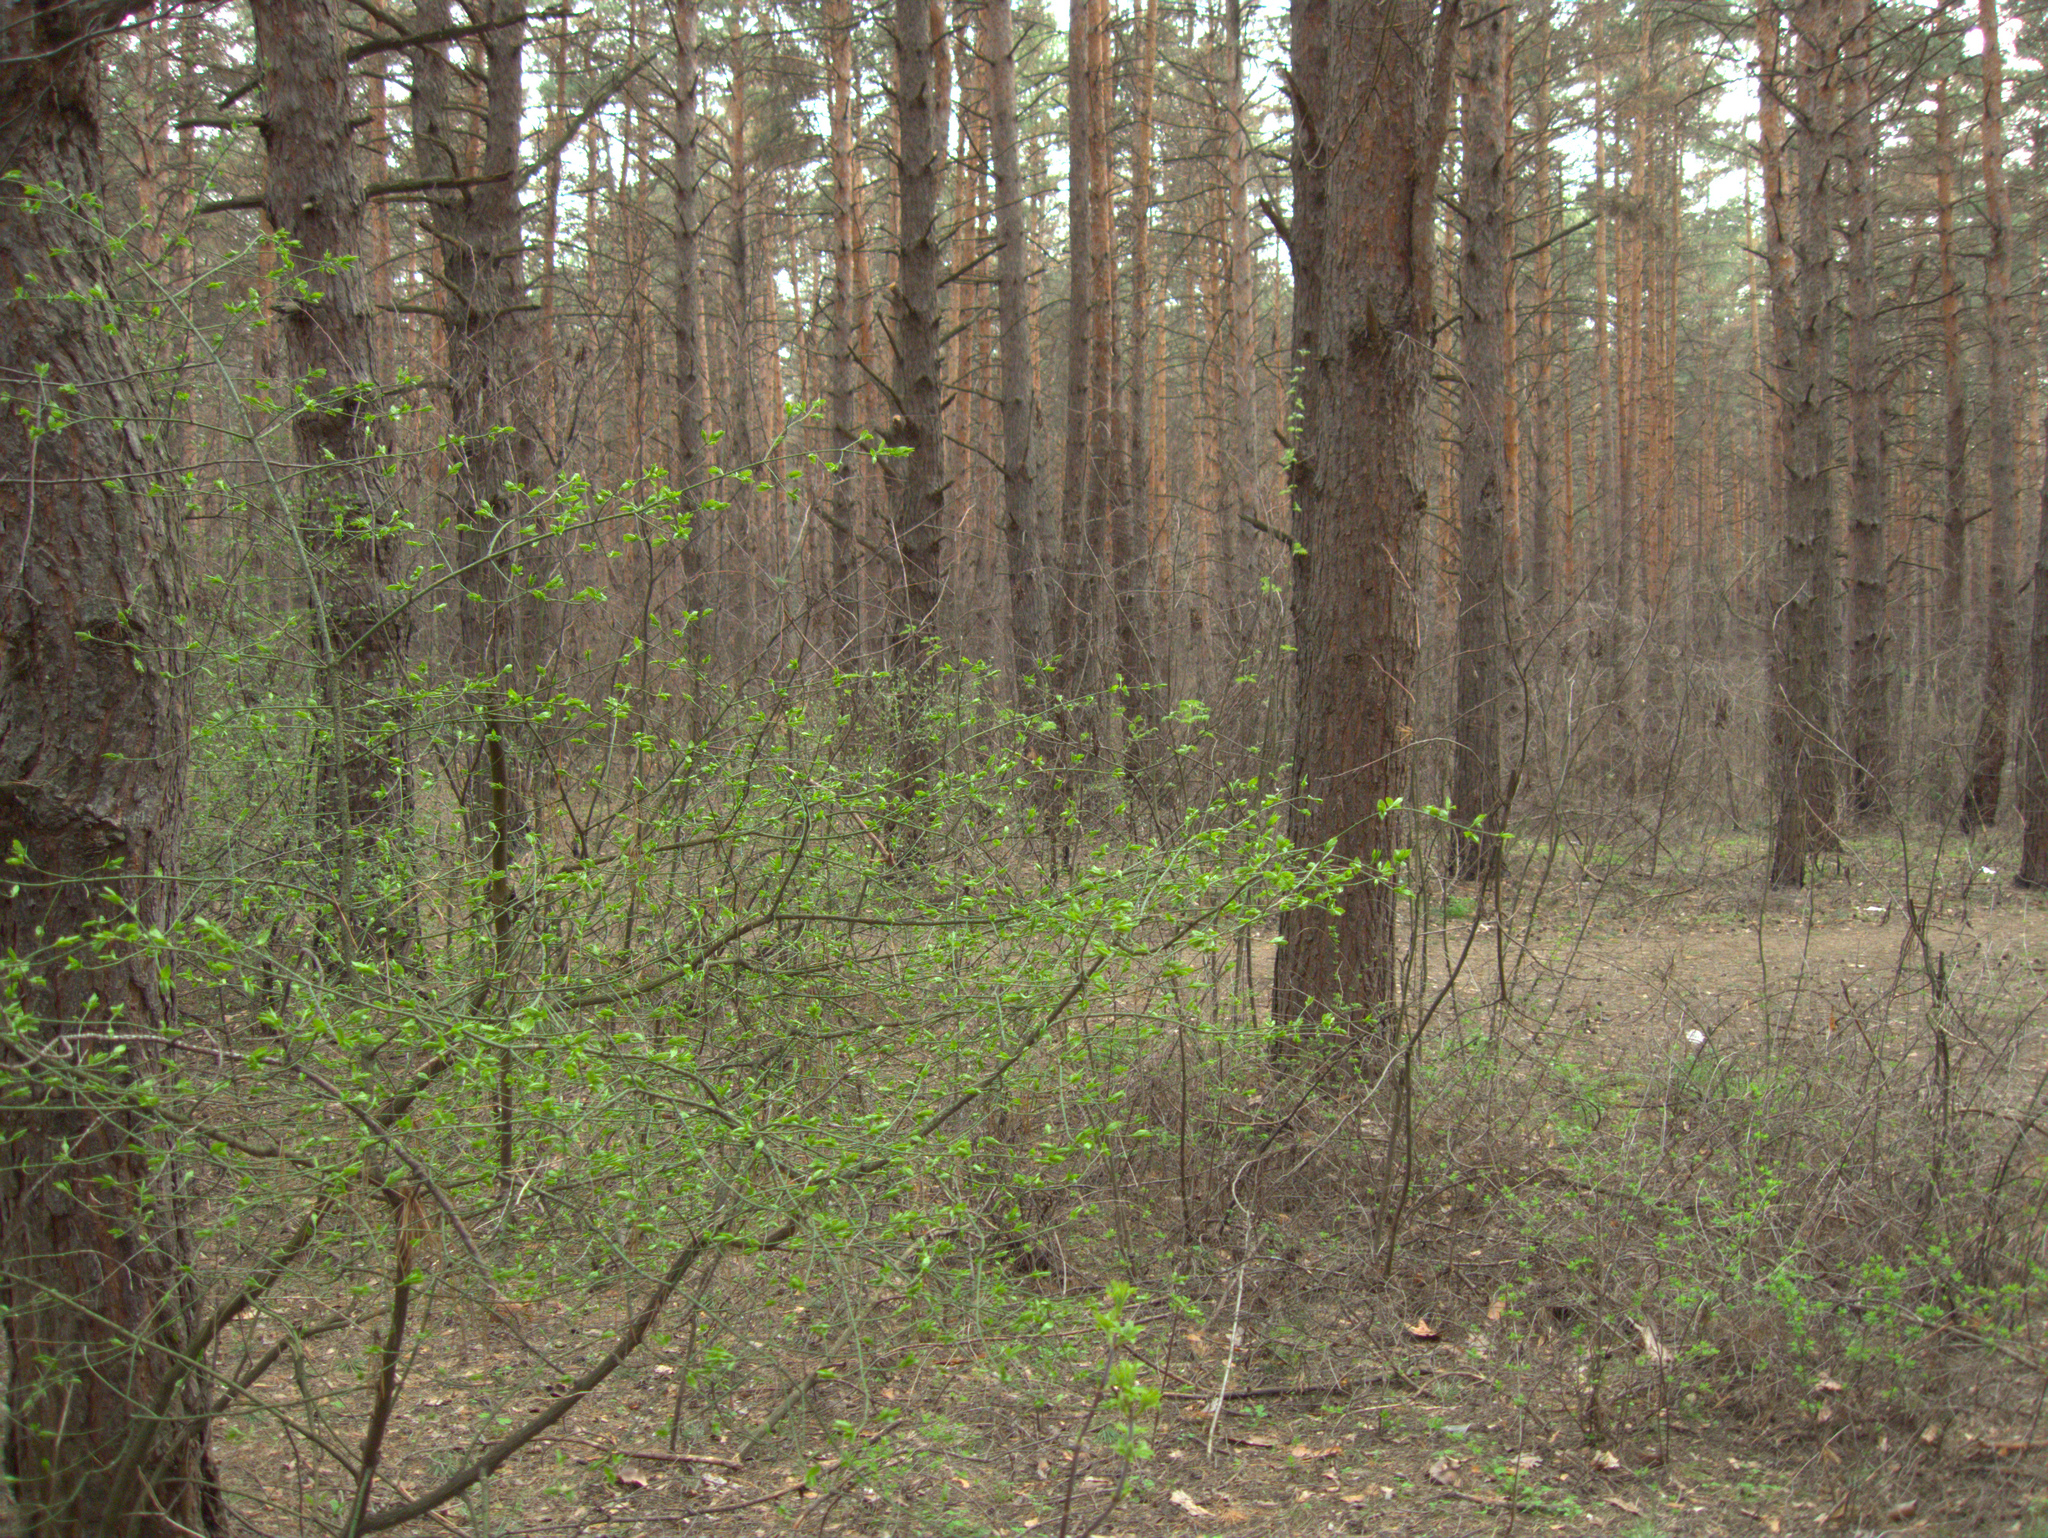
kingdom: Plantae
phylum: Tracheophyta
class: Magnoliopsida
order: Celastrales
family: Celastraceae
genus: Euonymus
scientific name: Euonymus verrucosus
